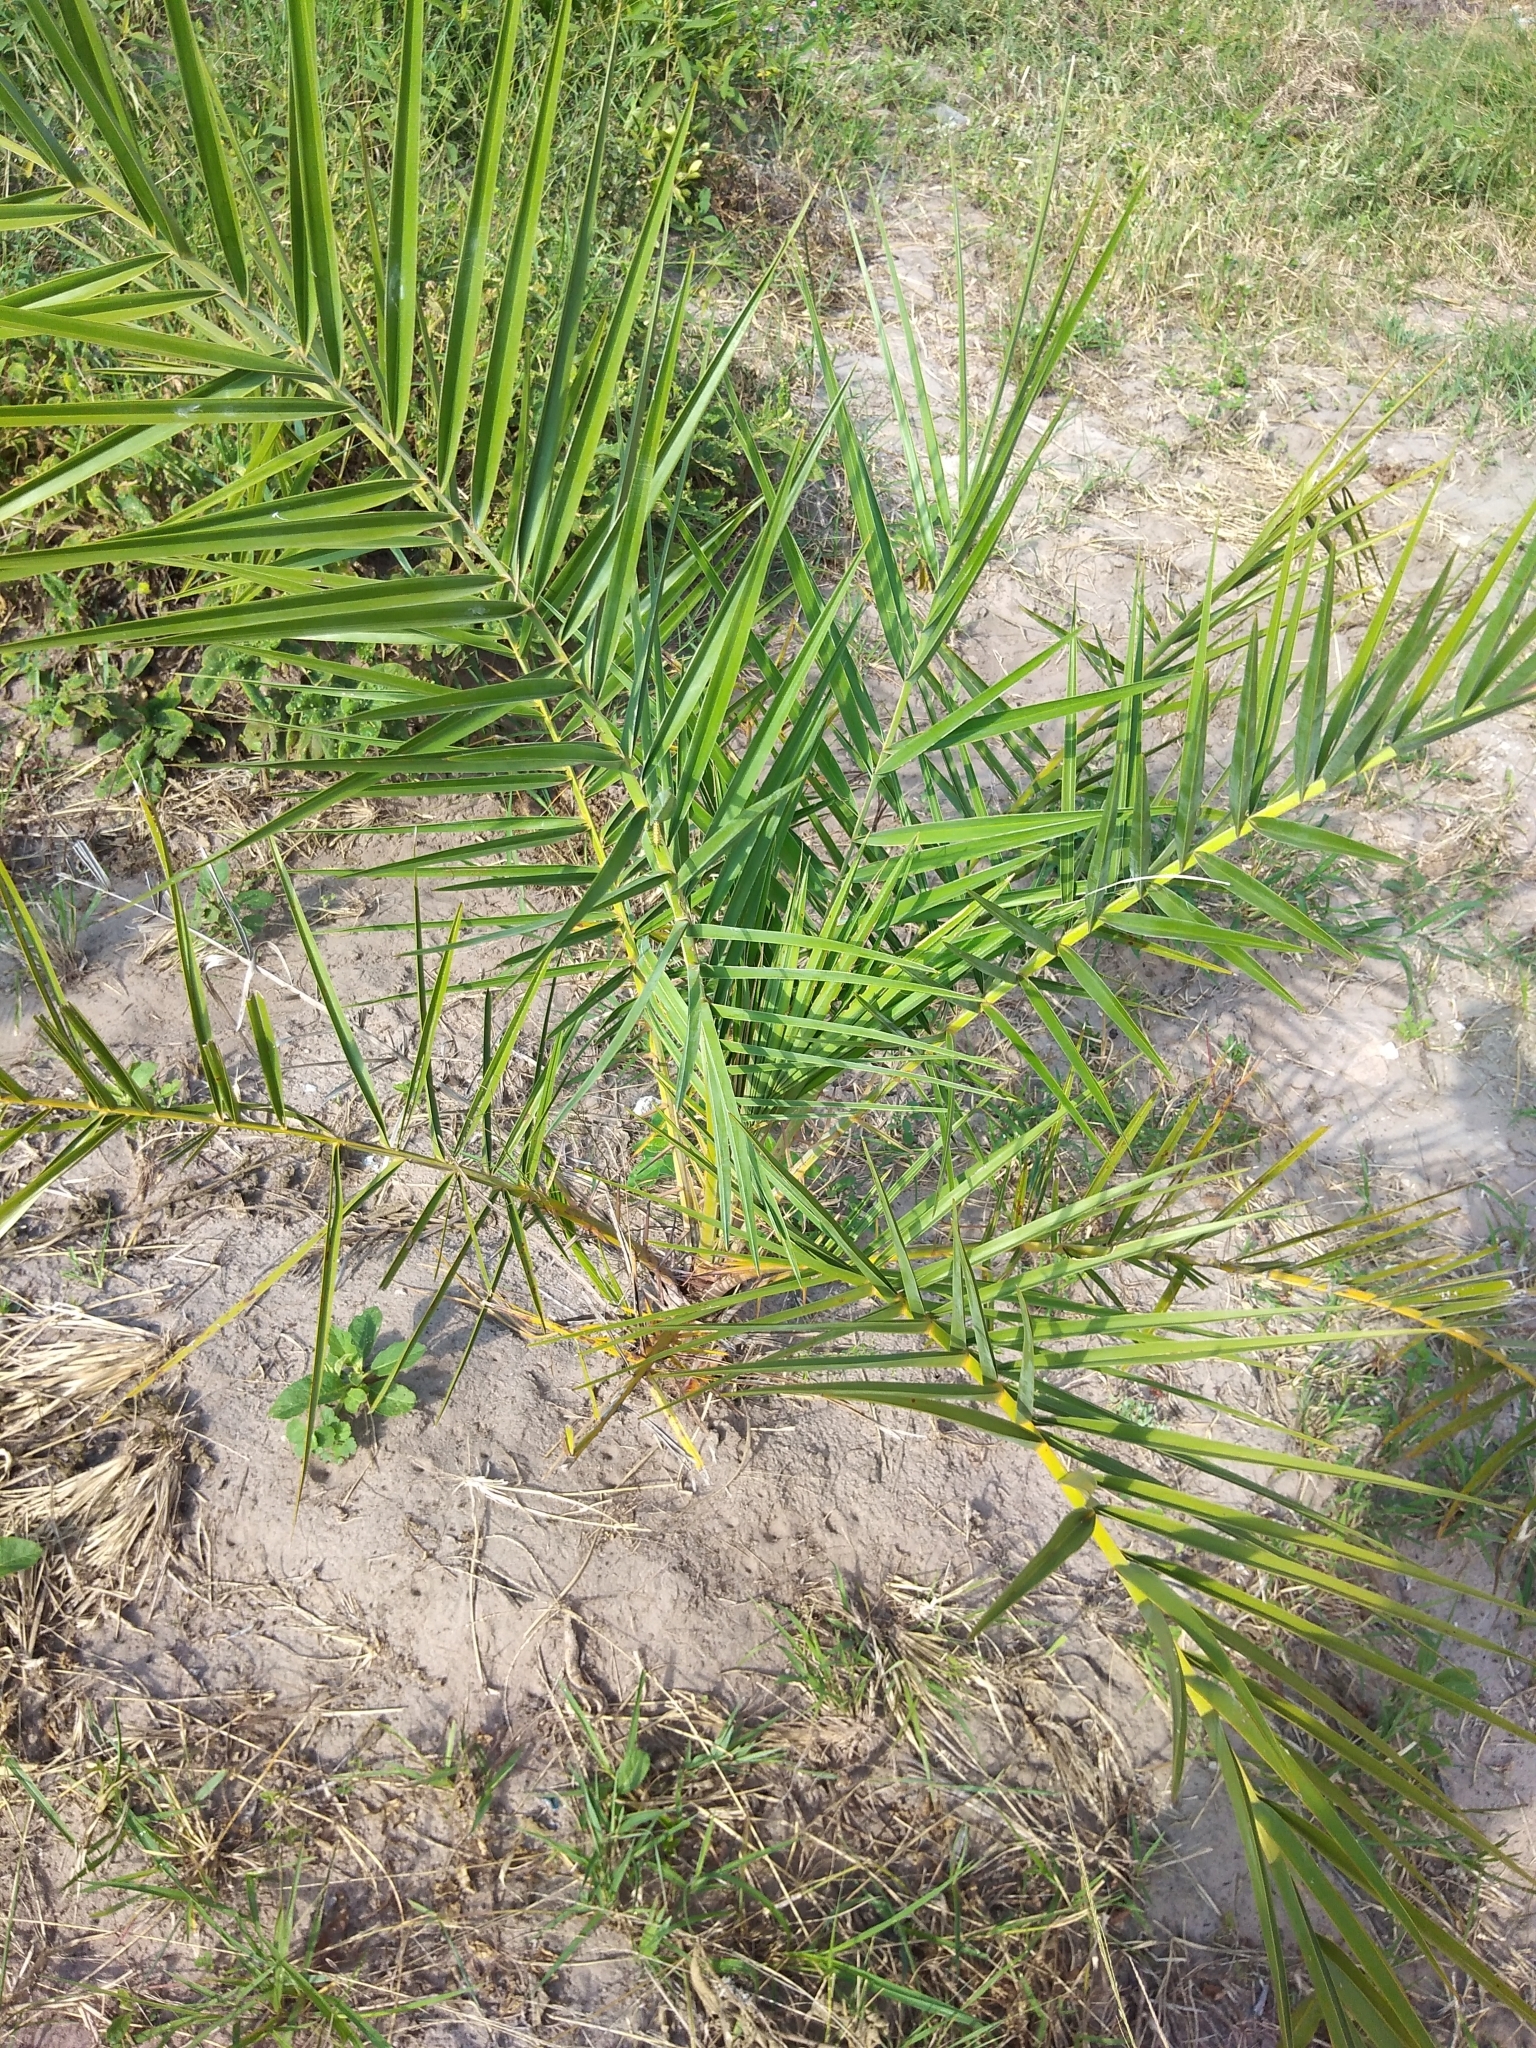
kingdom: Plantae
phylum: Tracheophyta
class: Liliopsida
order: Arecales
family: Arecaceae
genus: Phoenix
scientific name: Phoenix reclinata
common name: Senegal date palm
